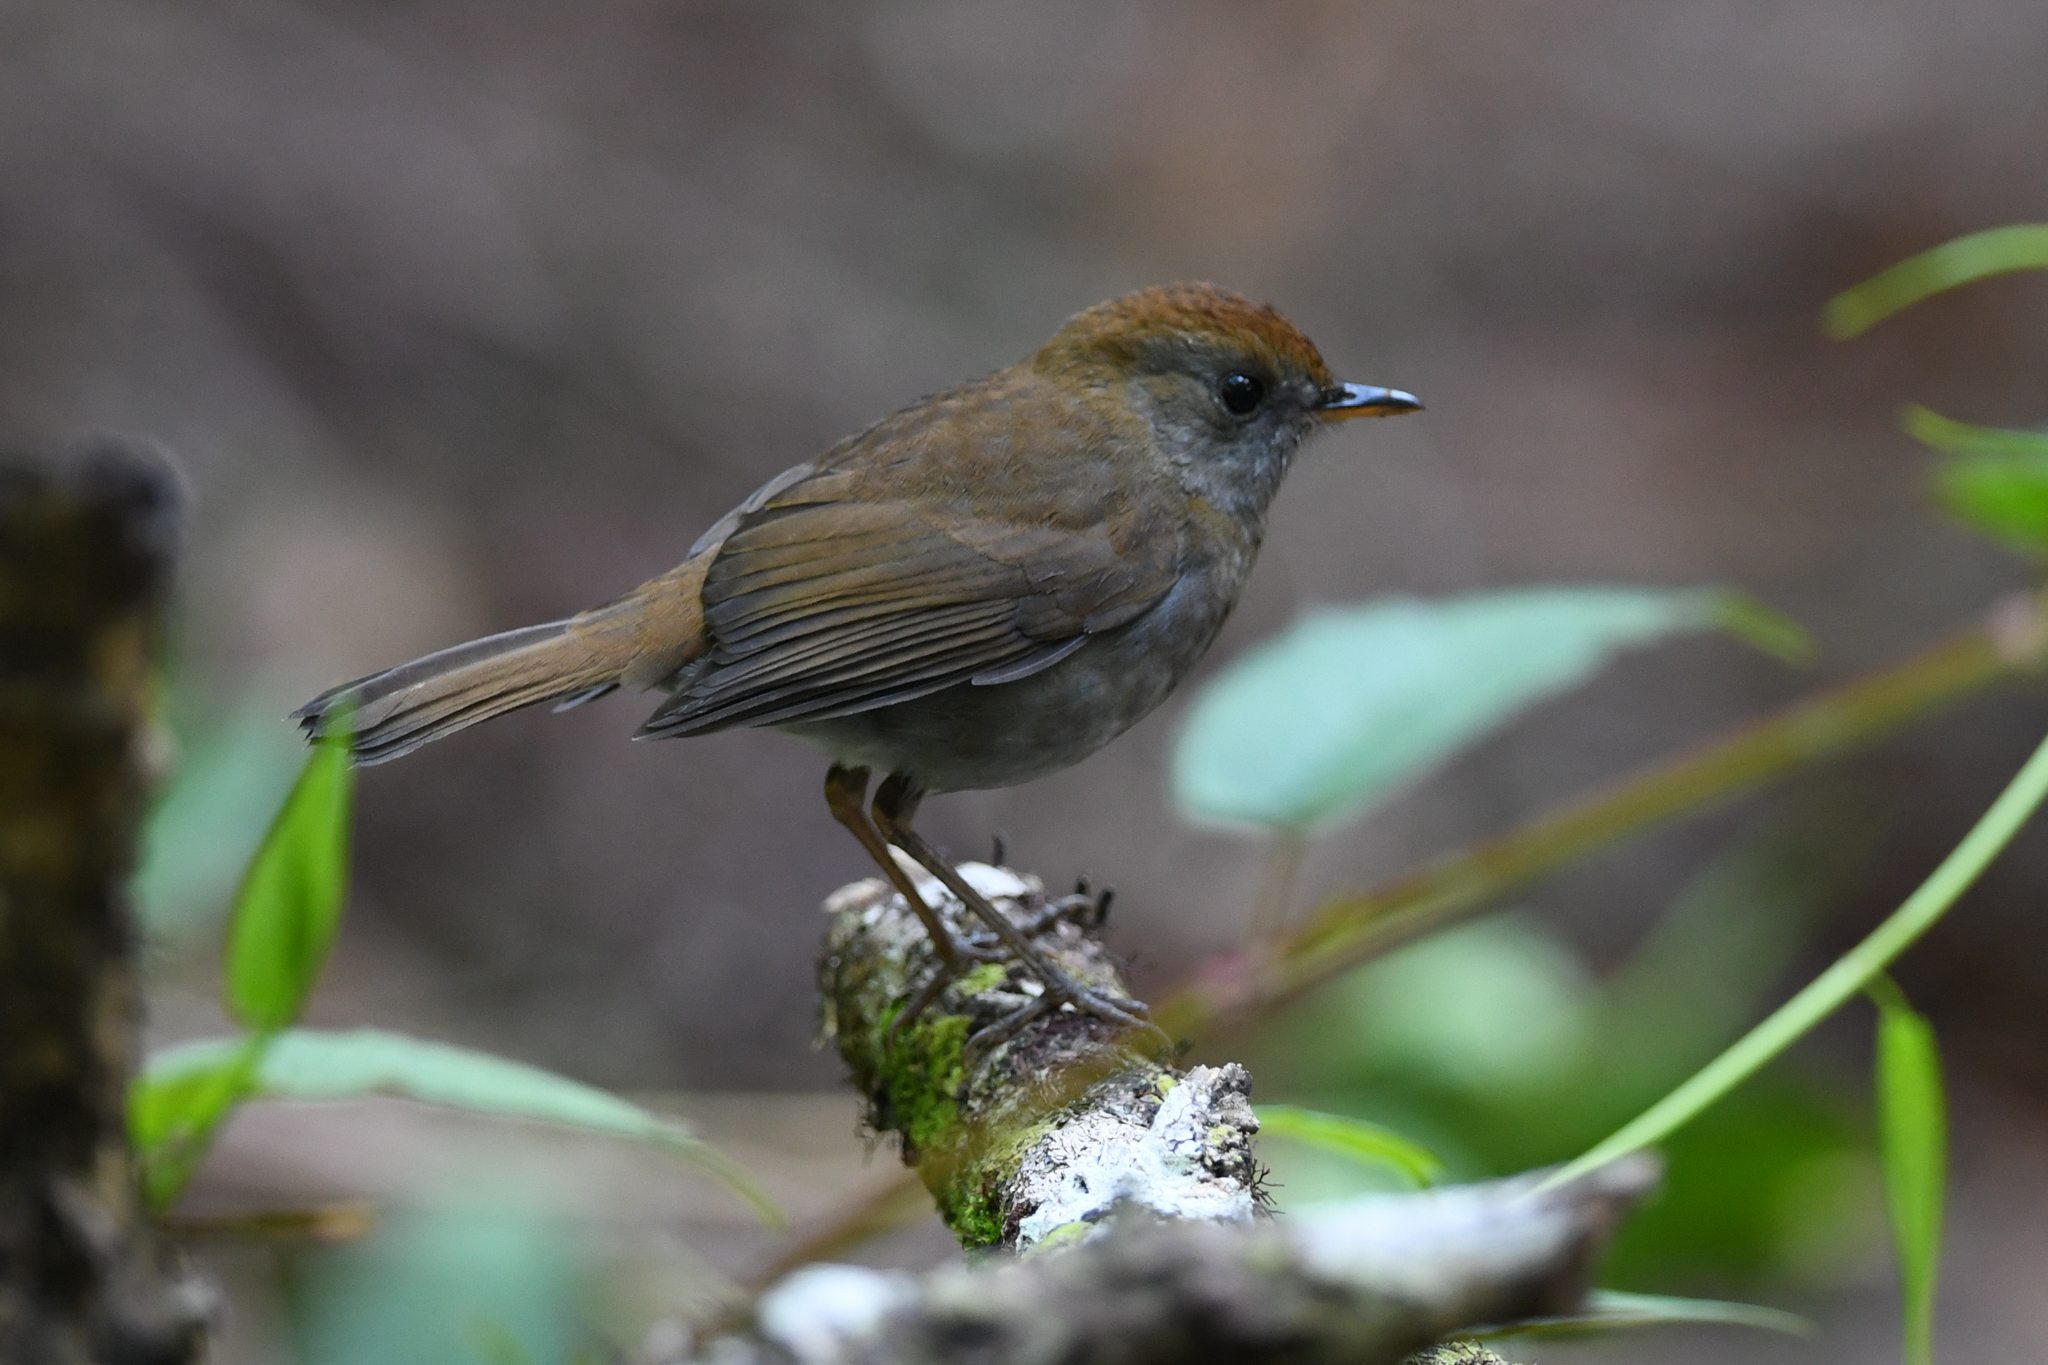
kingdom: Animalia
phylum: Chordata
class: Aves
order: Passeriformes
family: Turdidae
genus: Catharus
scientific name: Catharus frantzii
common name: Ruddy-capped nightingale-thrush
